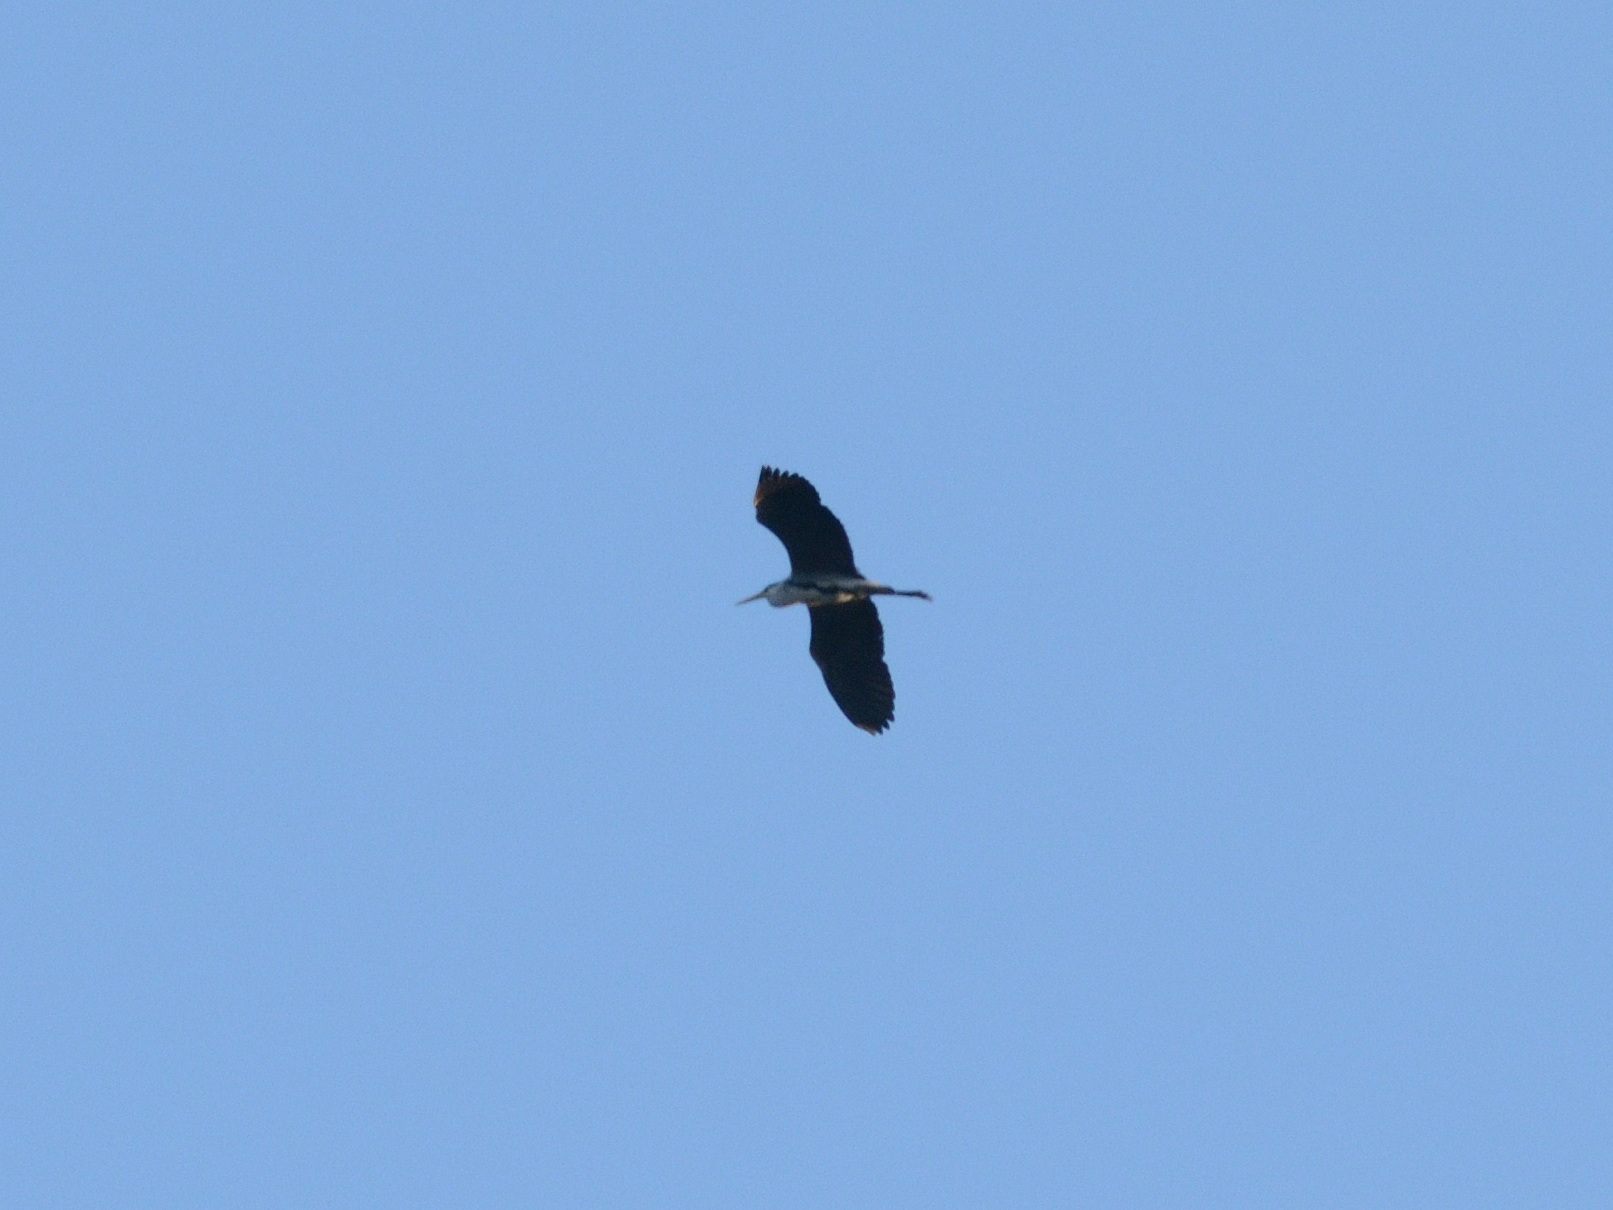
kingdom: Animalia
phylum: Chordata
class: Aves
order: Pelecaniformes
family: Ardeidae
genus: Ardea
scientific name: Ardea cinerea
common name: Grey heron
